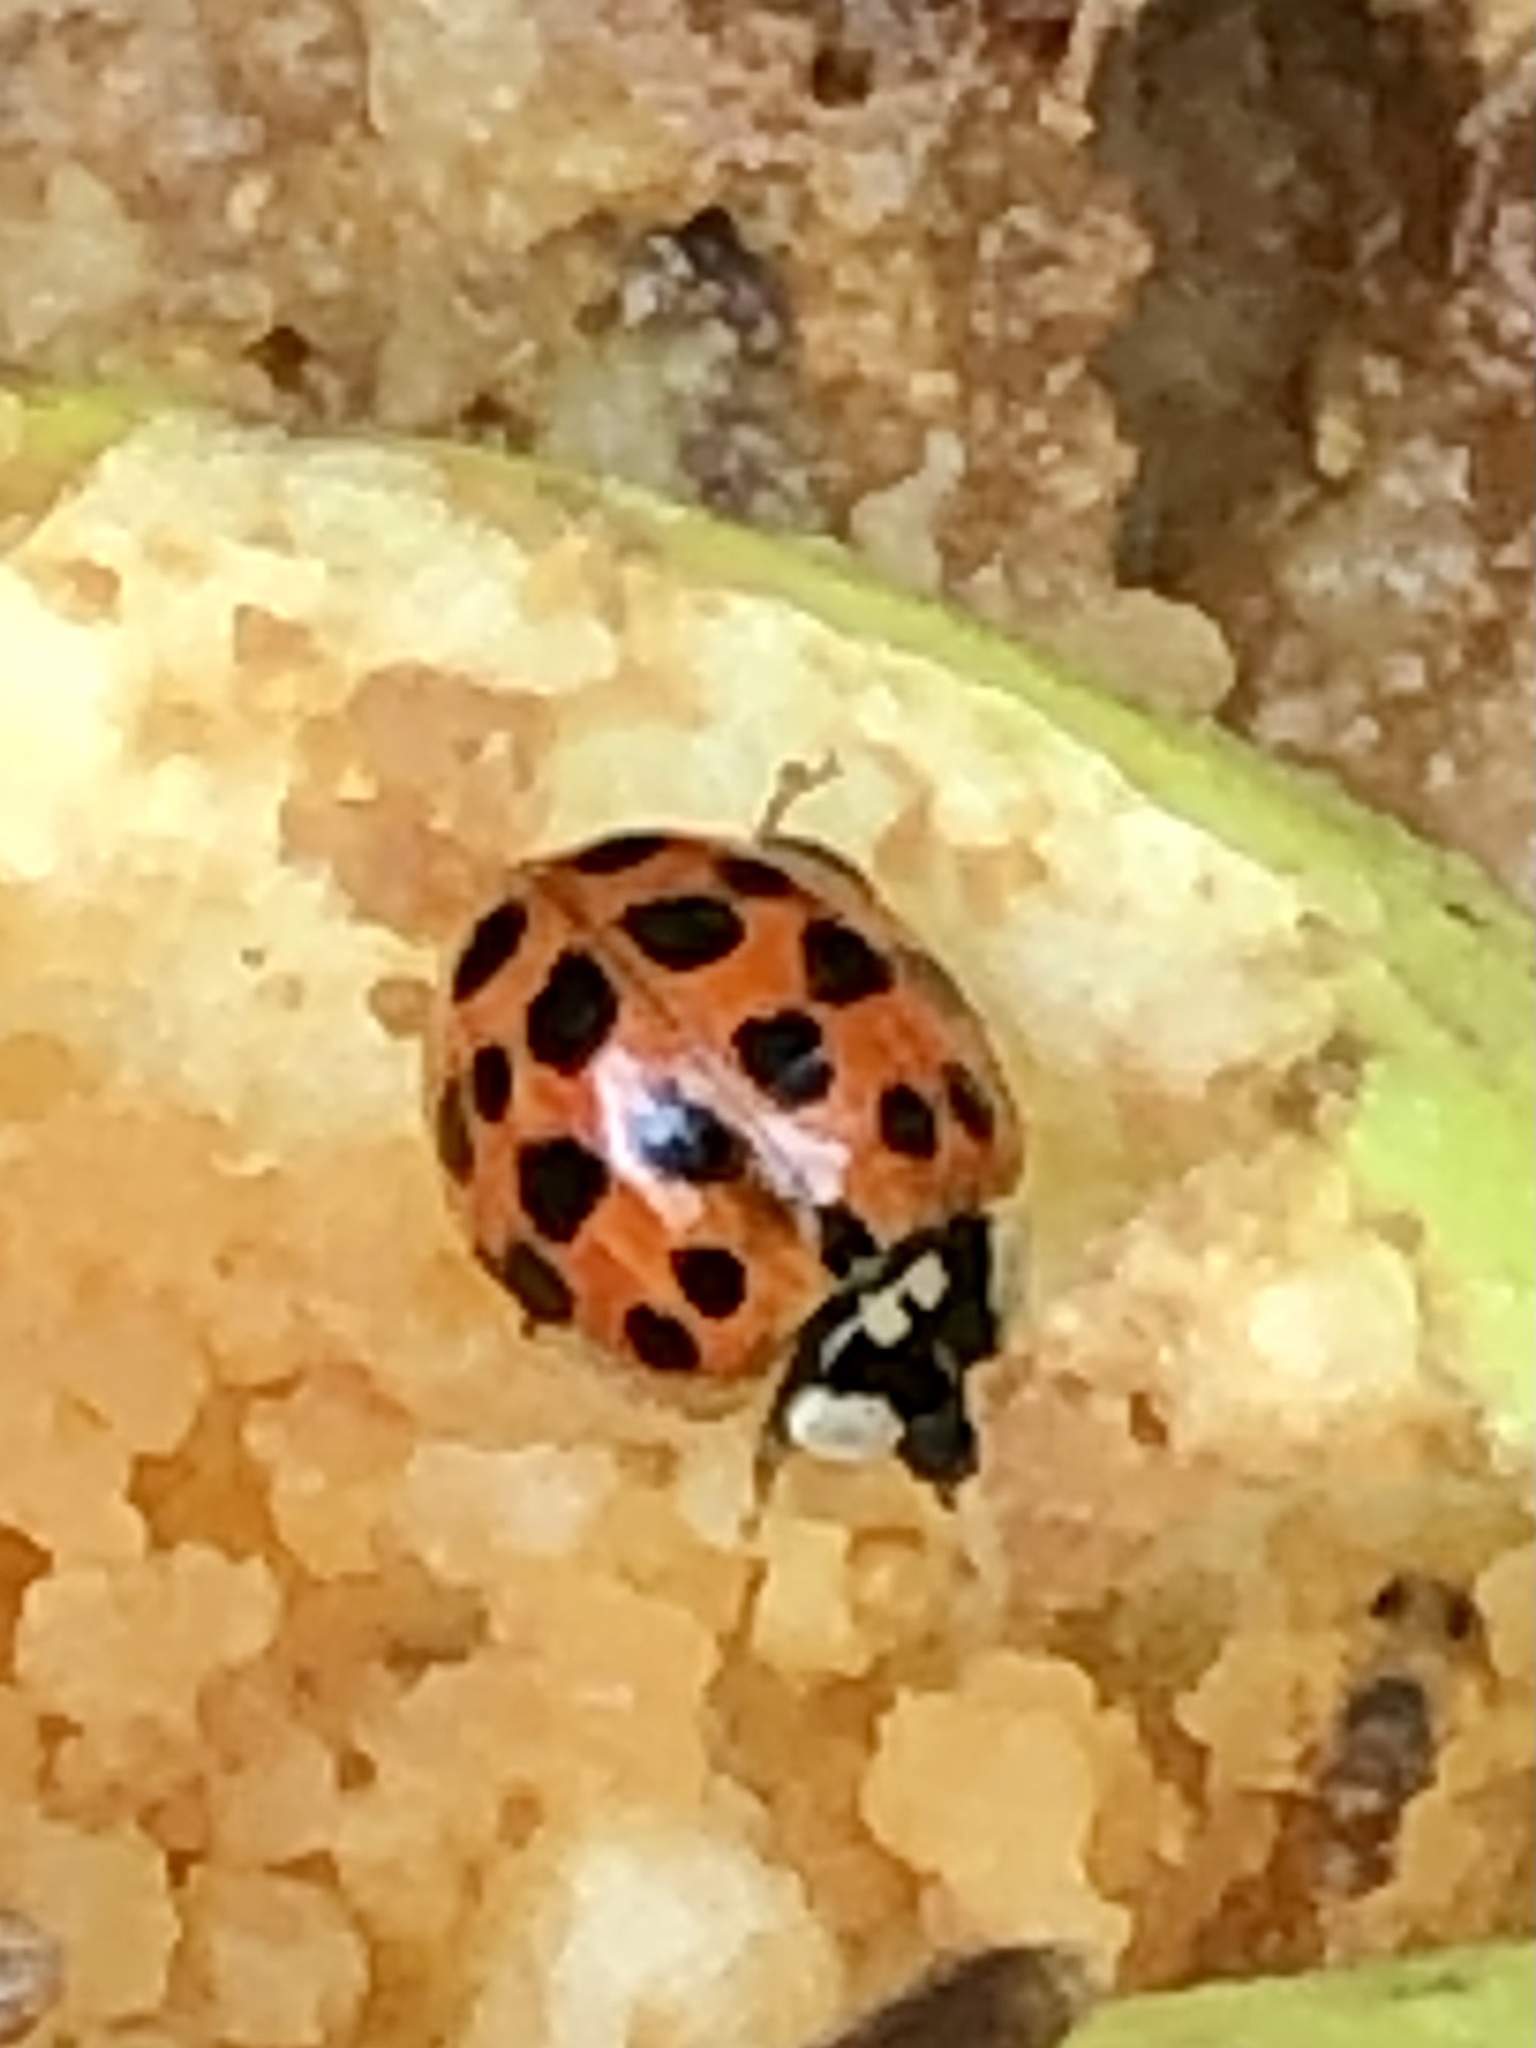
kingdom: Animalia
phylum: Arthropoda
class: Insecta
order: Coleoptera
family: Coccinellidae
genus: Harmonia
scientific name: Harmonia axyridis
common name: Harlequin ladybird
